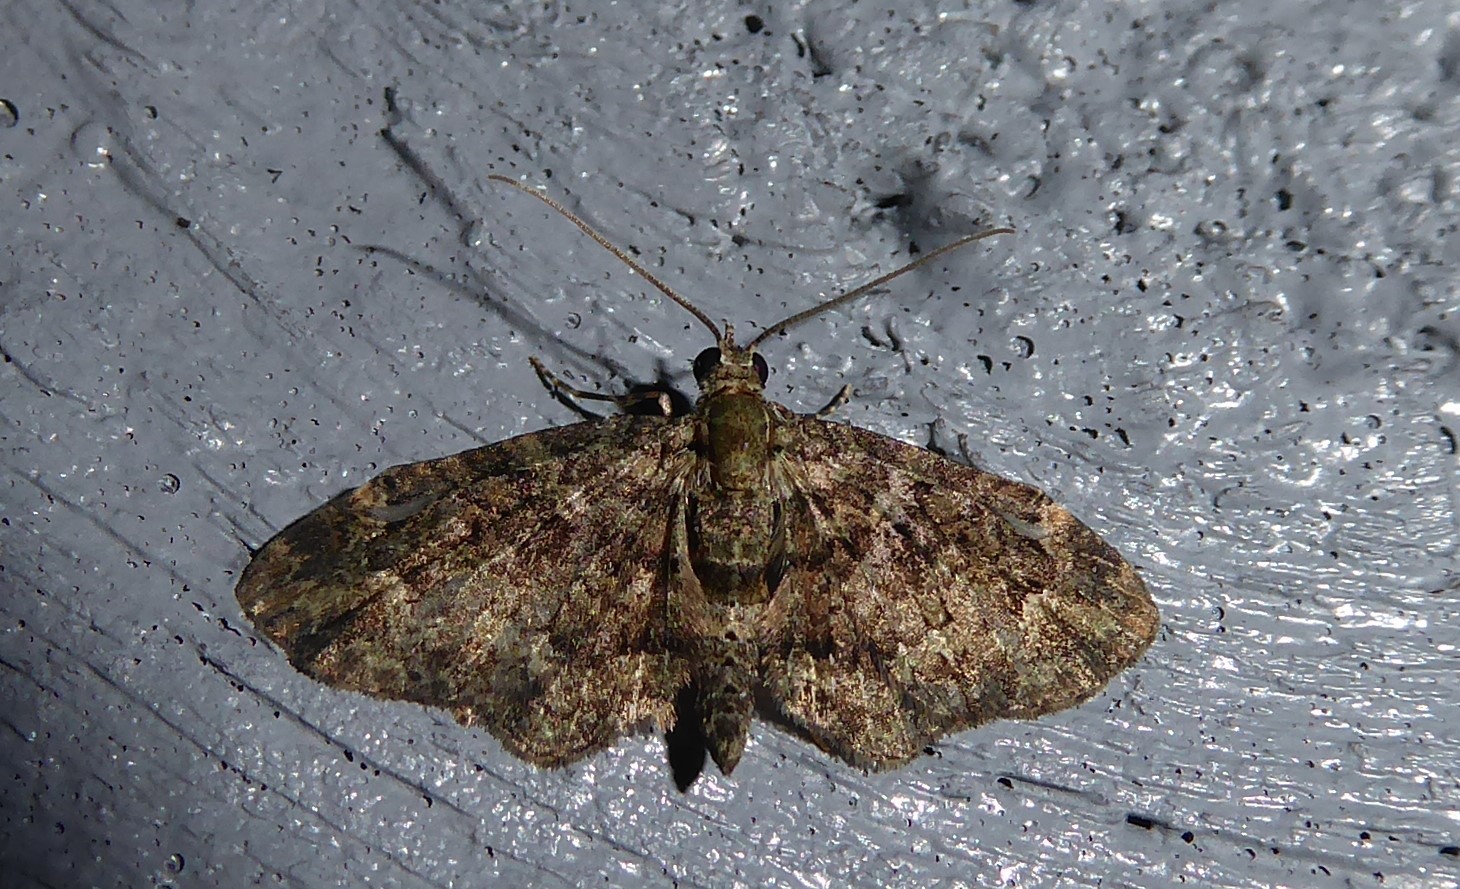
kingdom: Animalia
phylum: Arthropoda
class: Insecta
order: Lepidoptera
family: Geometridae
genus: Pasiphilodes
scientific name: Pasiphilodes testulata
